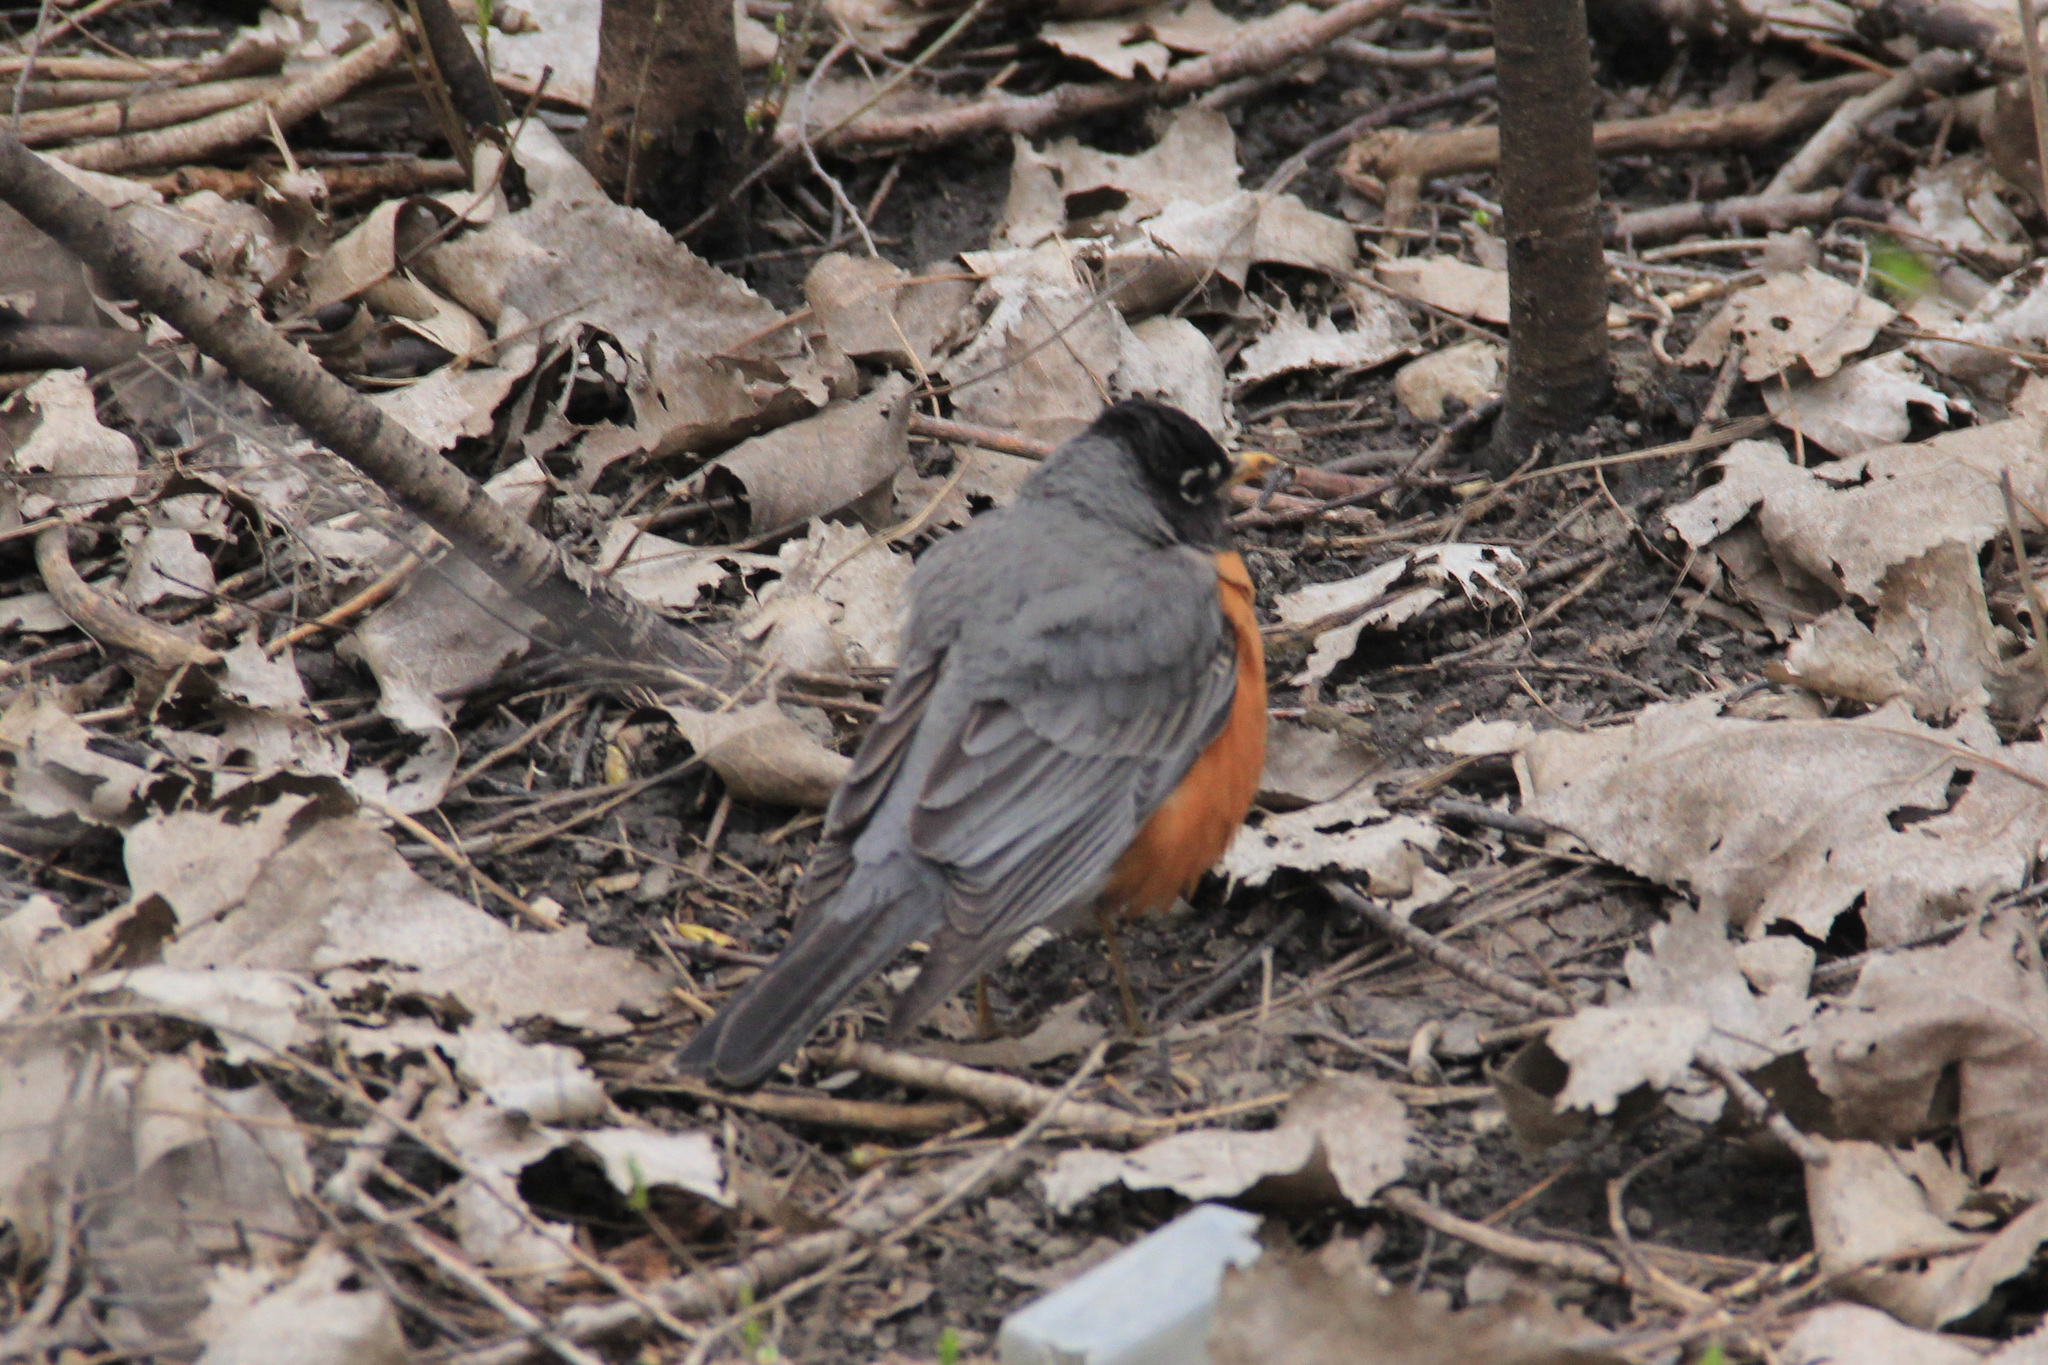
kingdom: Animalia
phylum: Chordata
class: Aves
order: Passeriformes
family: Turdidae
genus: Turdus
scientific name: Turdus migratorius
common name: American robin
